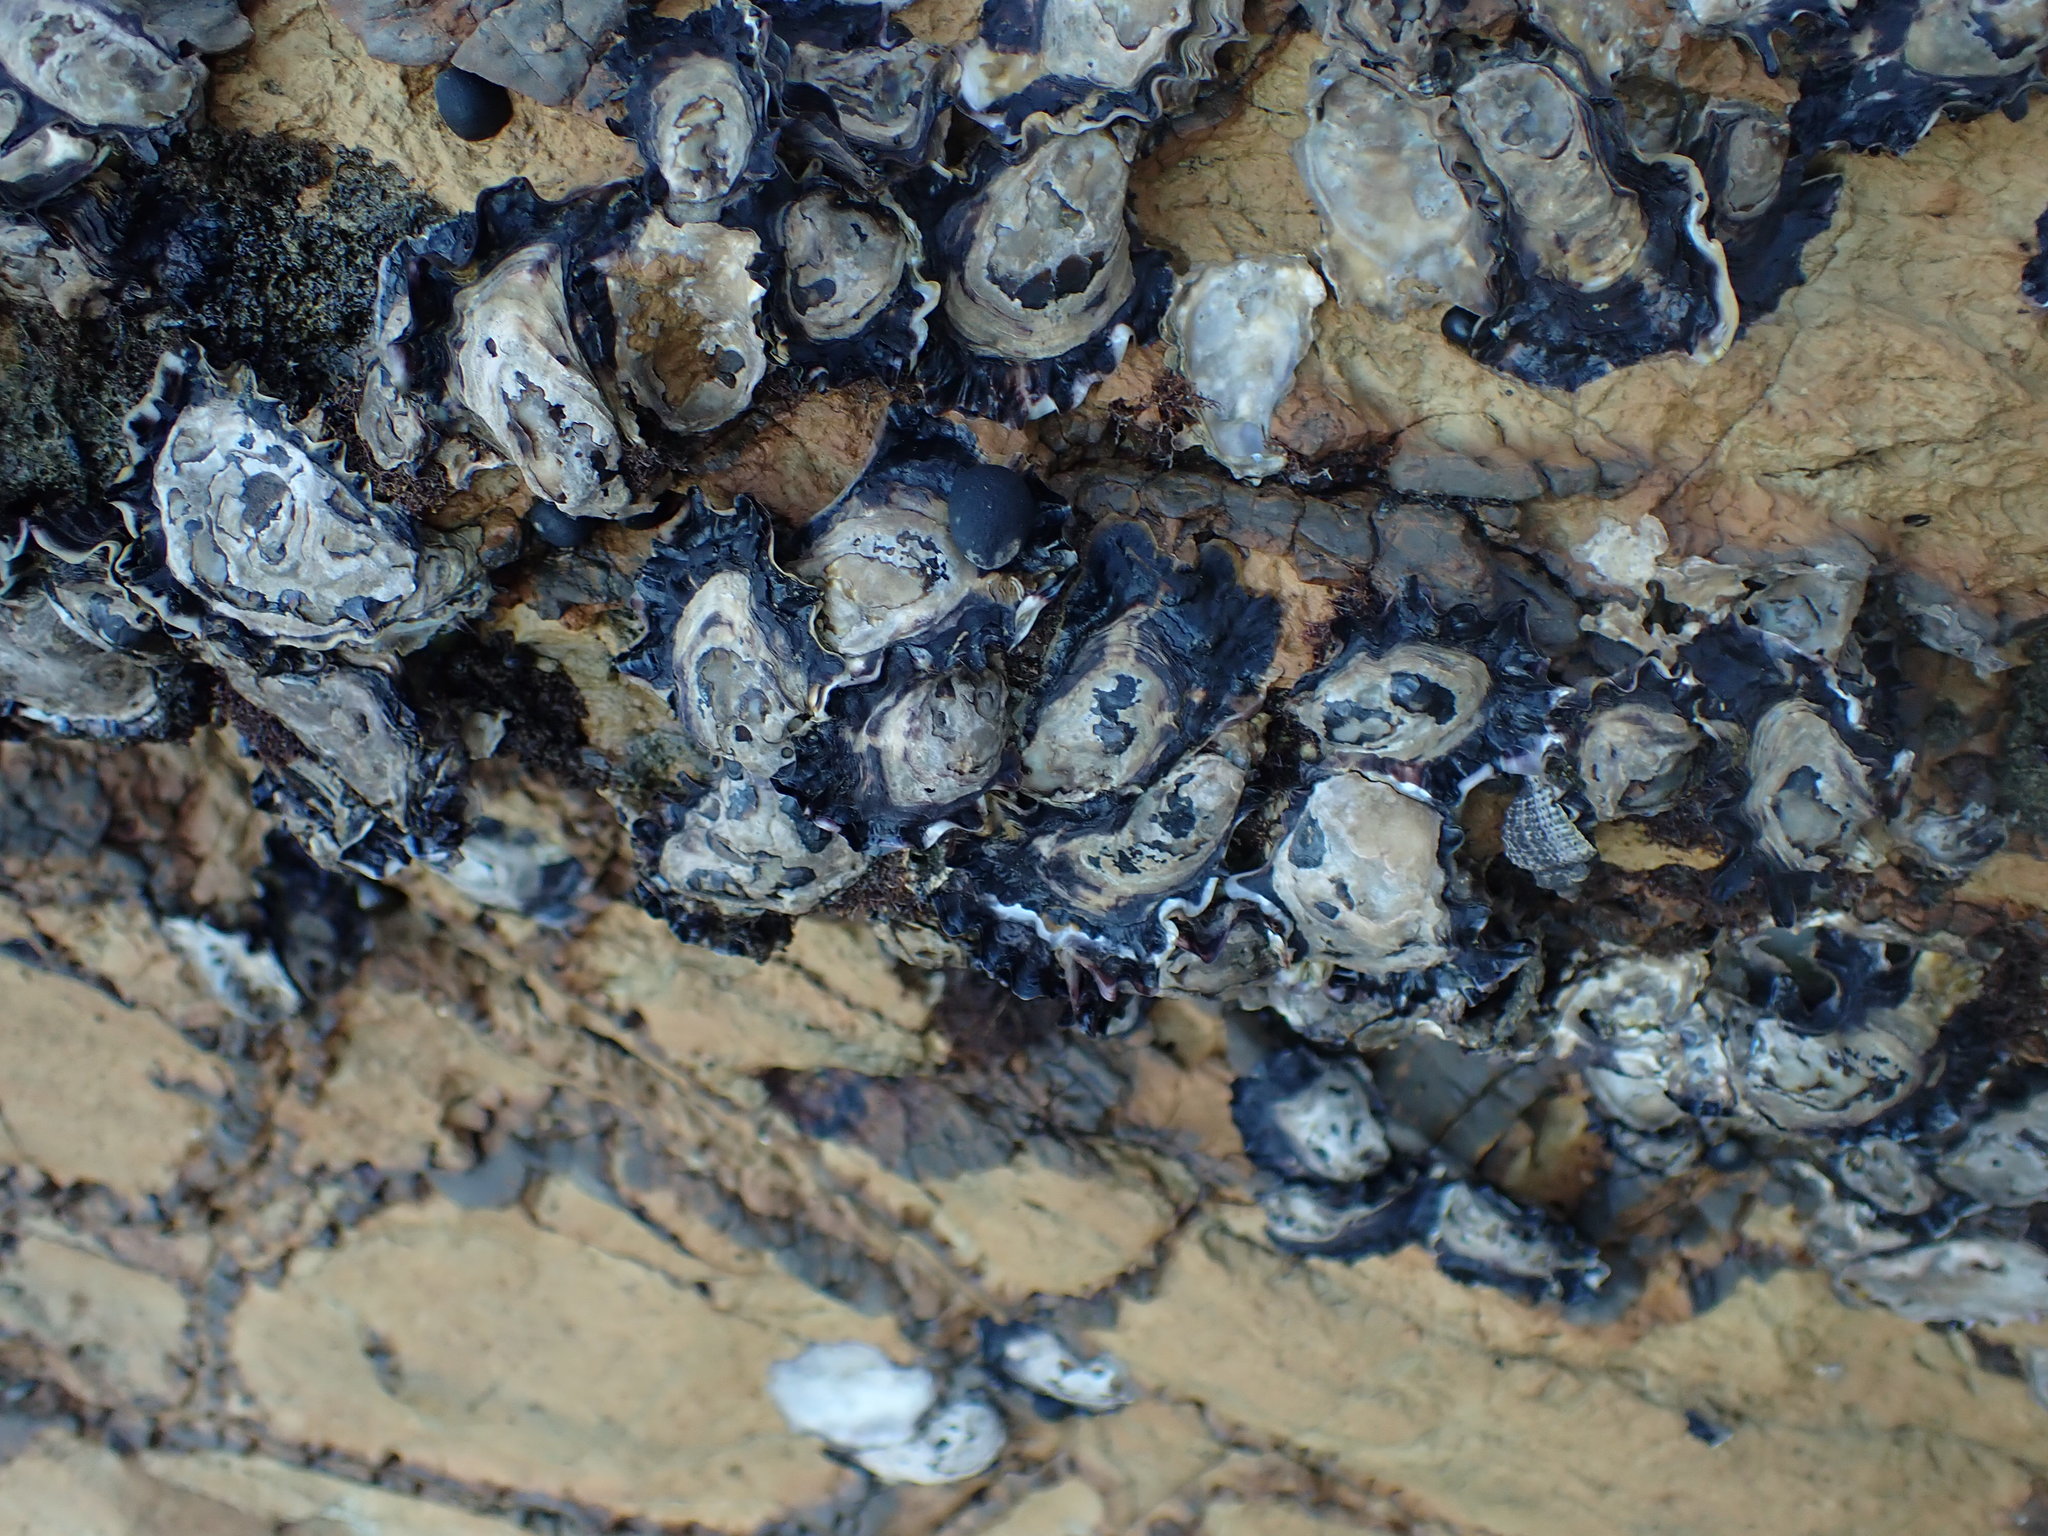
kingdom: Animalia
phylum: Mollusca
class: Bivalvia
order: Ostreida
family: Ostreidae
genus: Saccostrea
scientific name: Saccostrea glomerata
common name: Sydney cupped oyster
